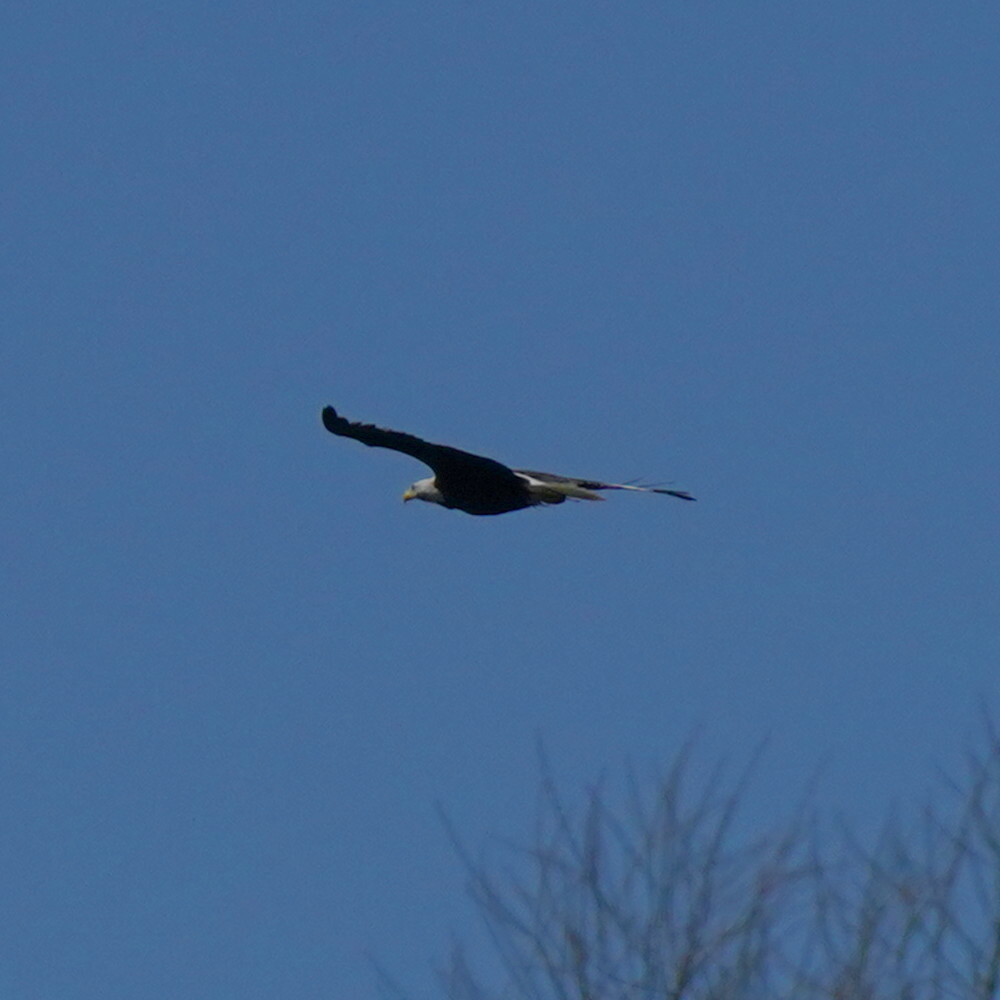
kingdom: Animalia
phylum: Chordata
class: Aves
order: Accipitriformes
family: Accipitridae
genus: Haliaeetus
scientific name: Haliaeetus leucocephalus
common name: Bald eagle
